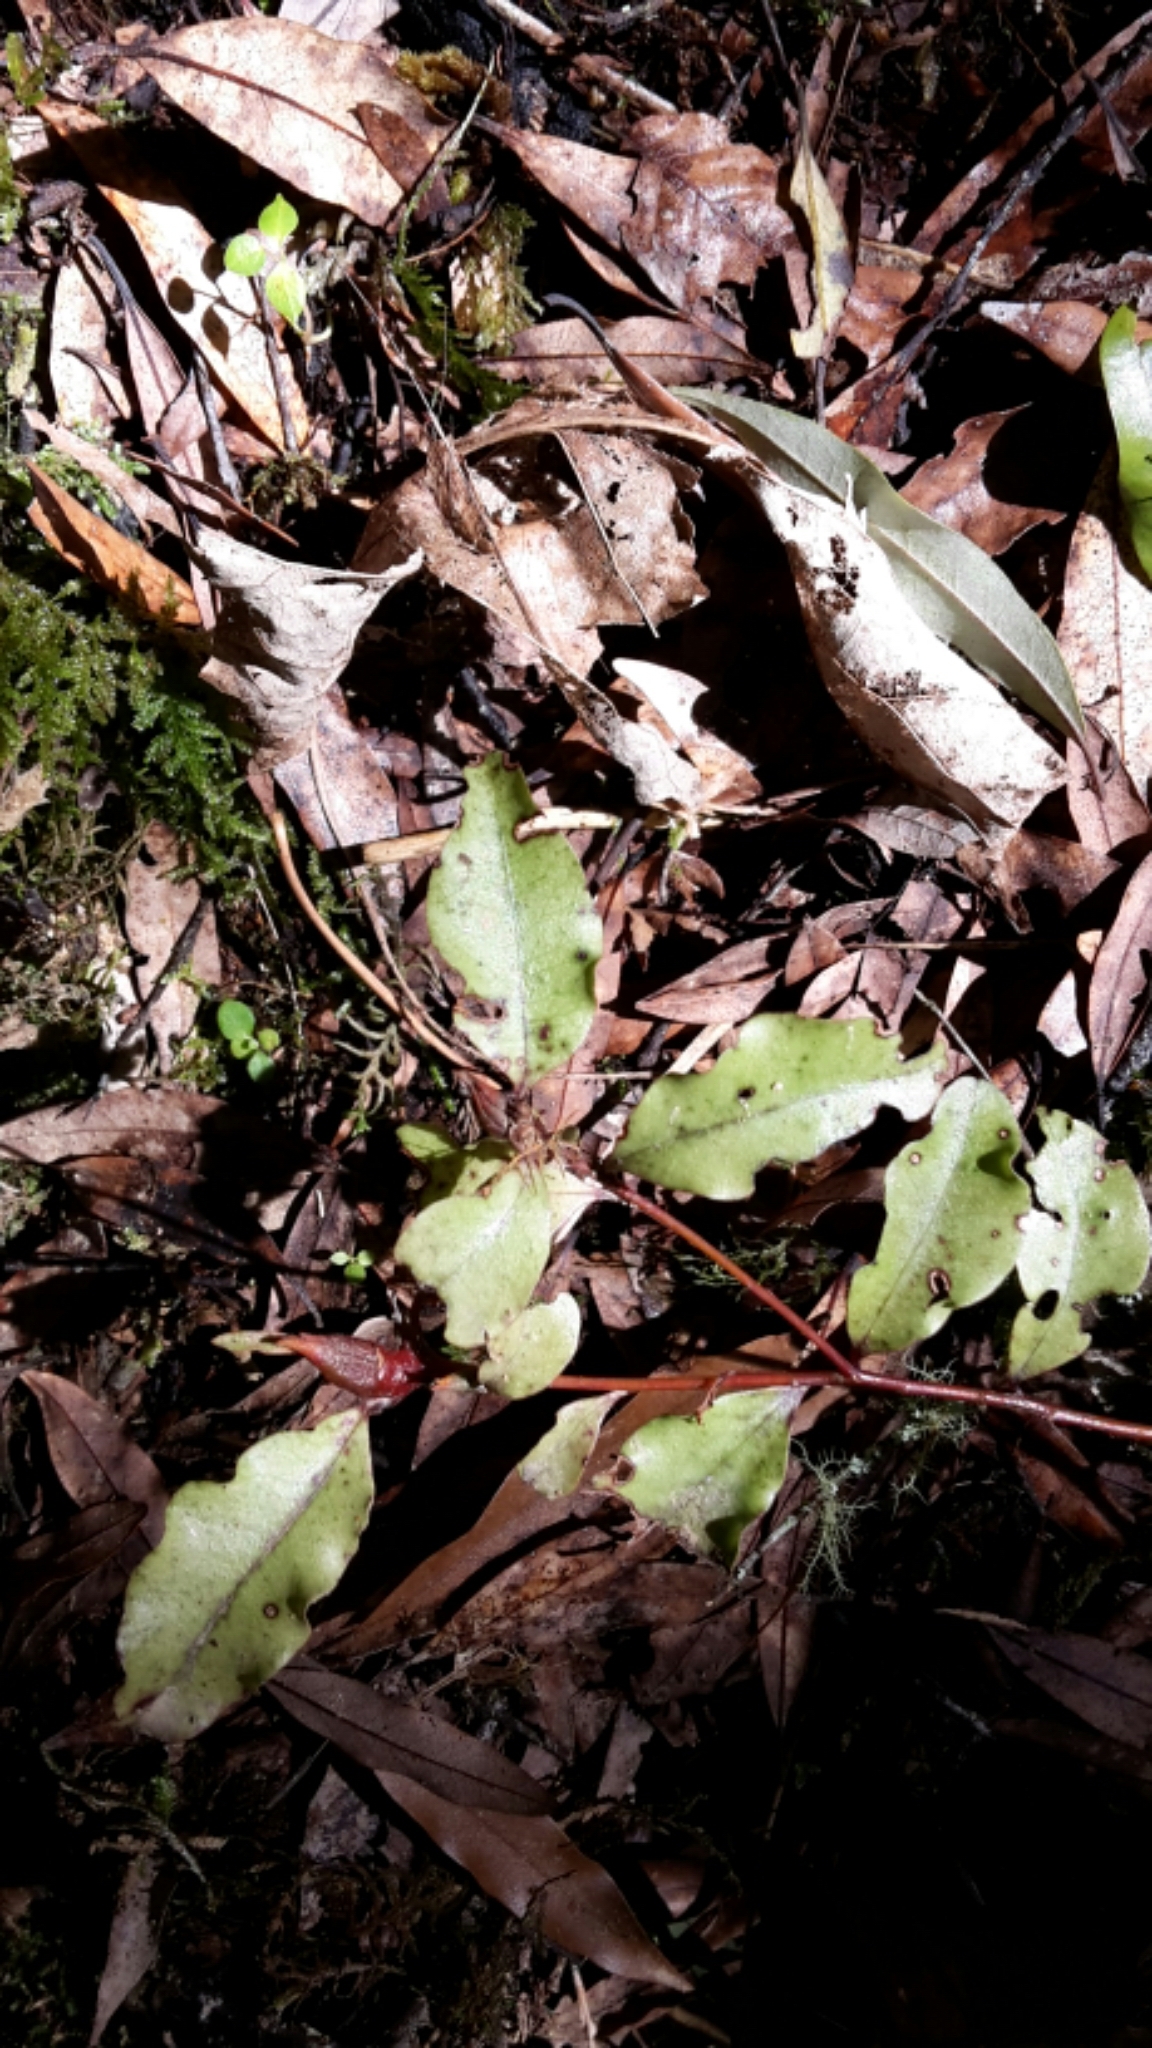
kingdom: Plantae
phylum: Tracheophyta
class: Magnoliopsida
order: Ericales
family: Primulaceae
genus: Myrsine
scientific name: Myrsine australis
